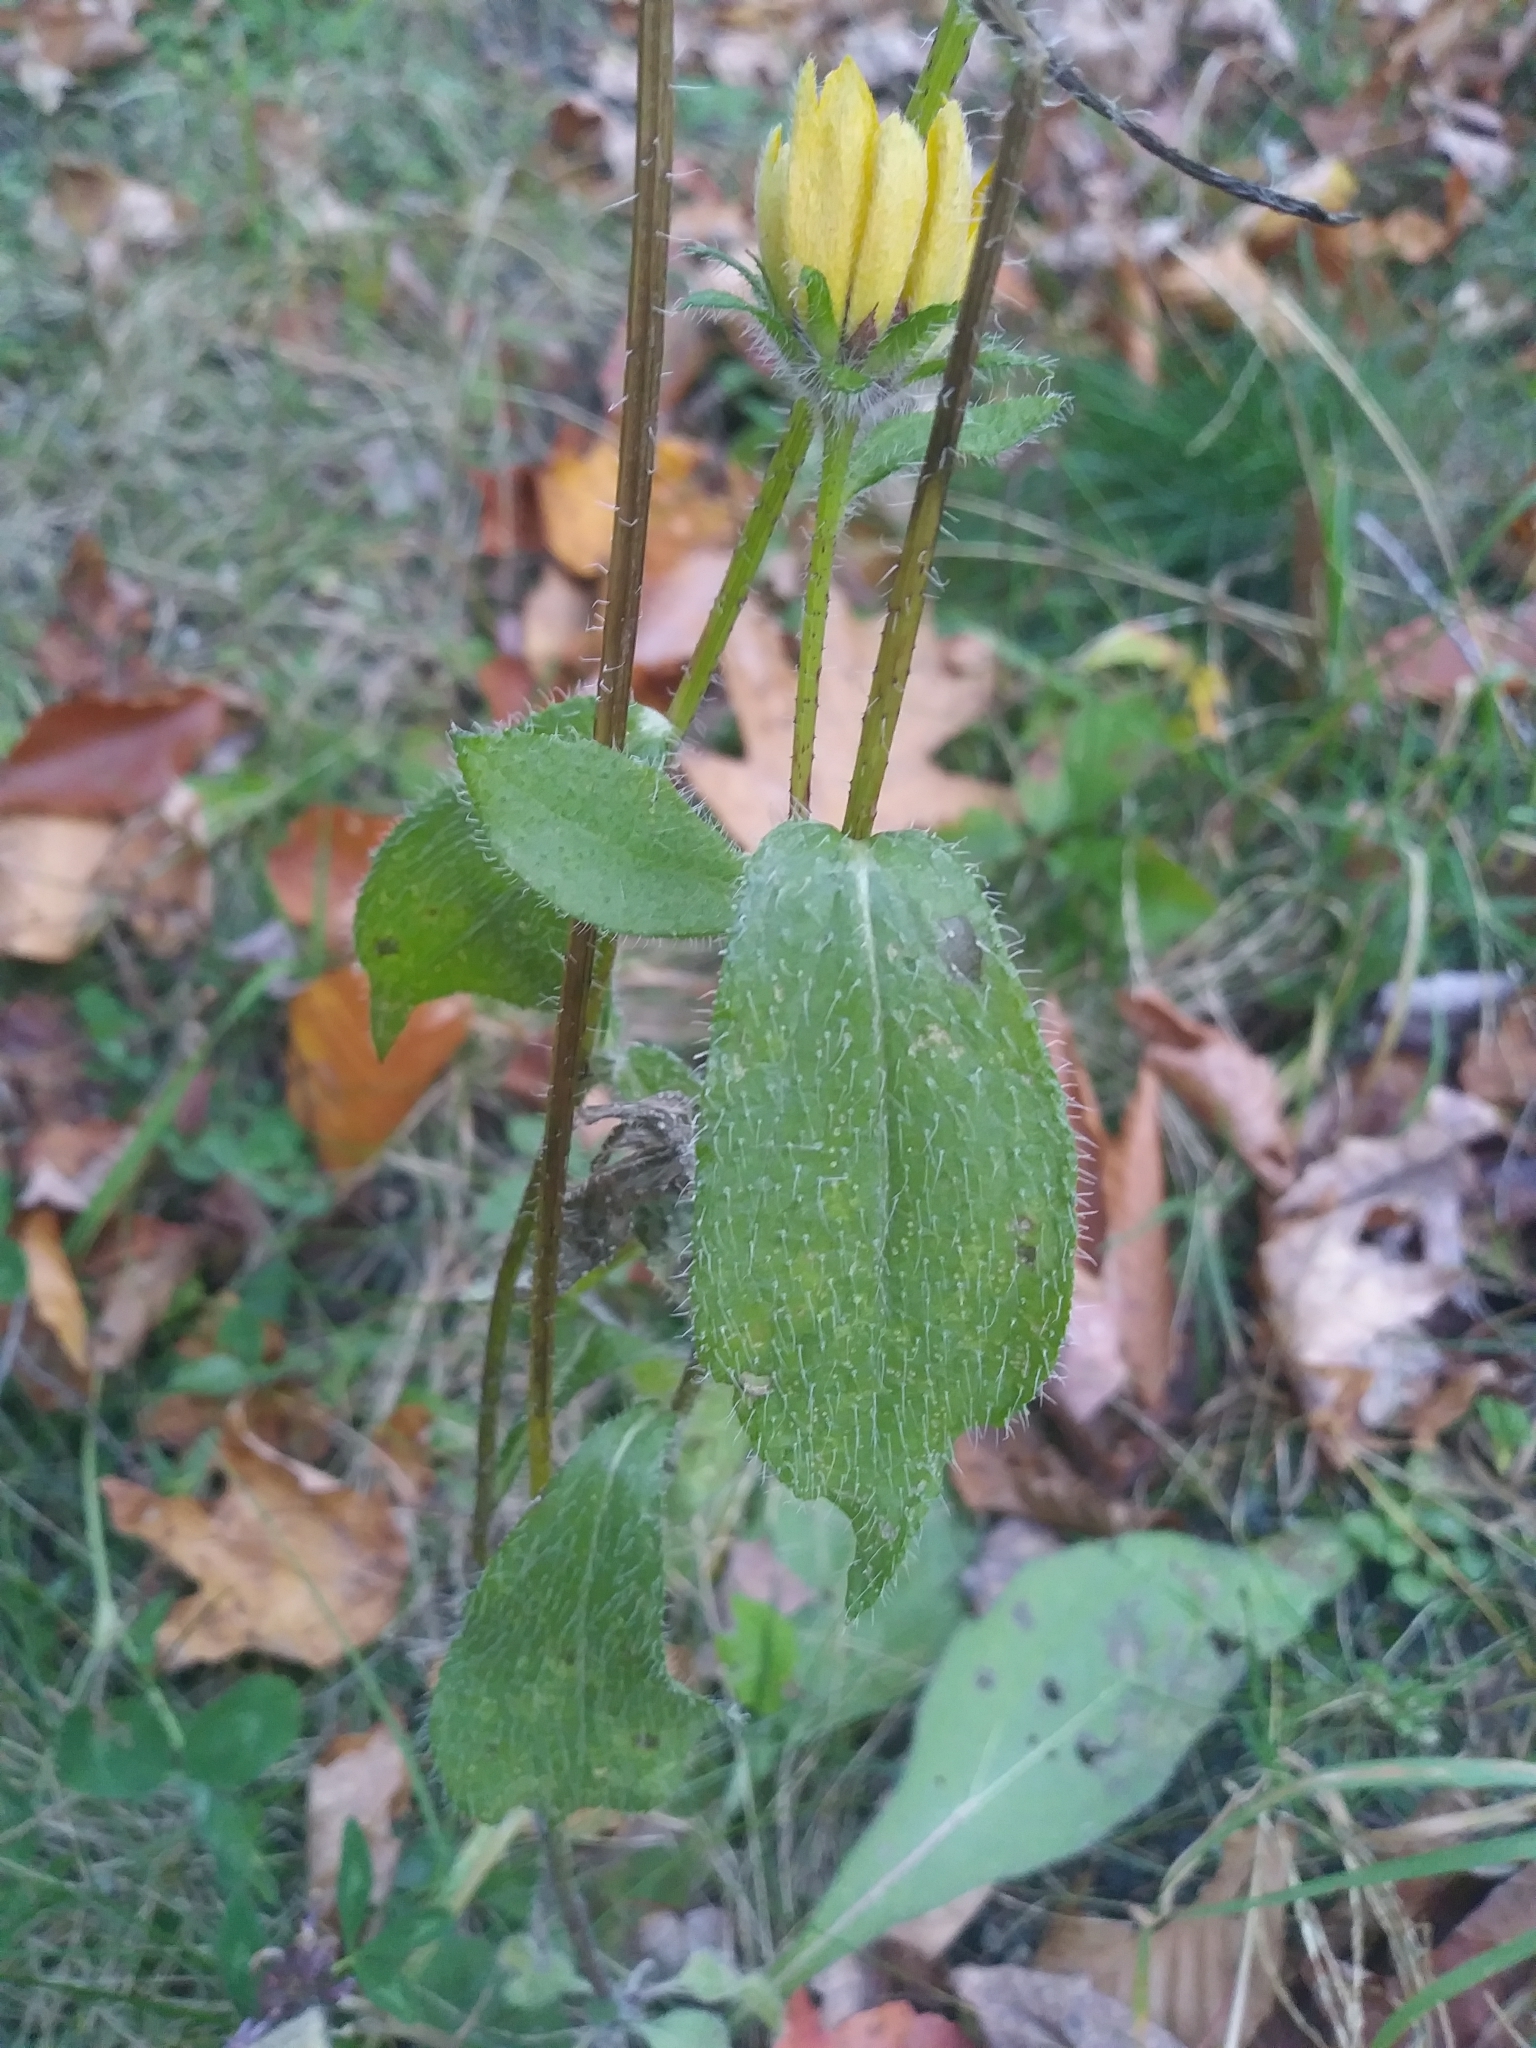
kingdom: Plantae
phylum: Tracheophyta
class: Magnoliopsida
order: Asterales
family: Asteraceae
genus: Rudbeckia
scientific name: Rudbeckia hirta
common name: Black-eyed-susan
